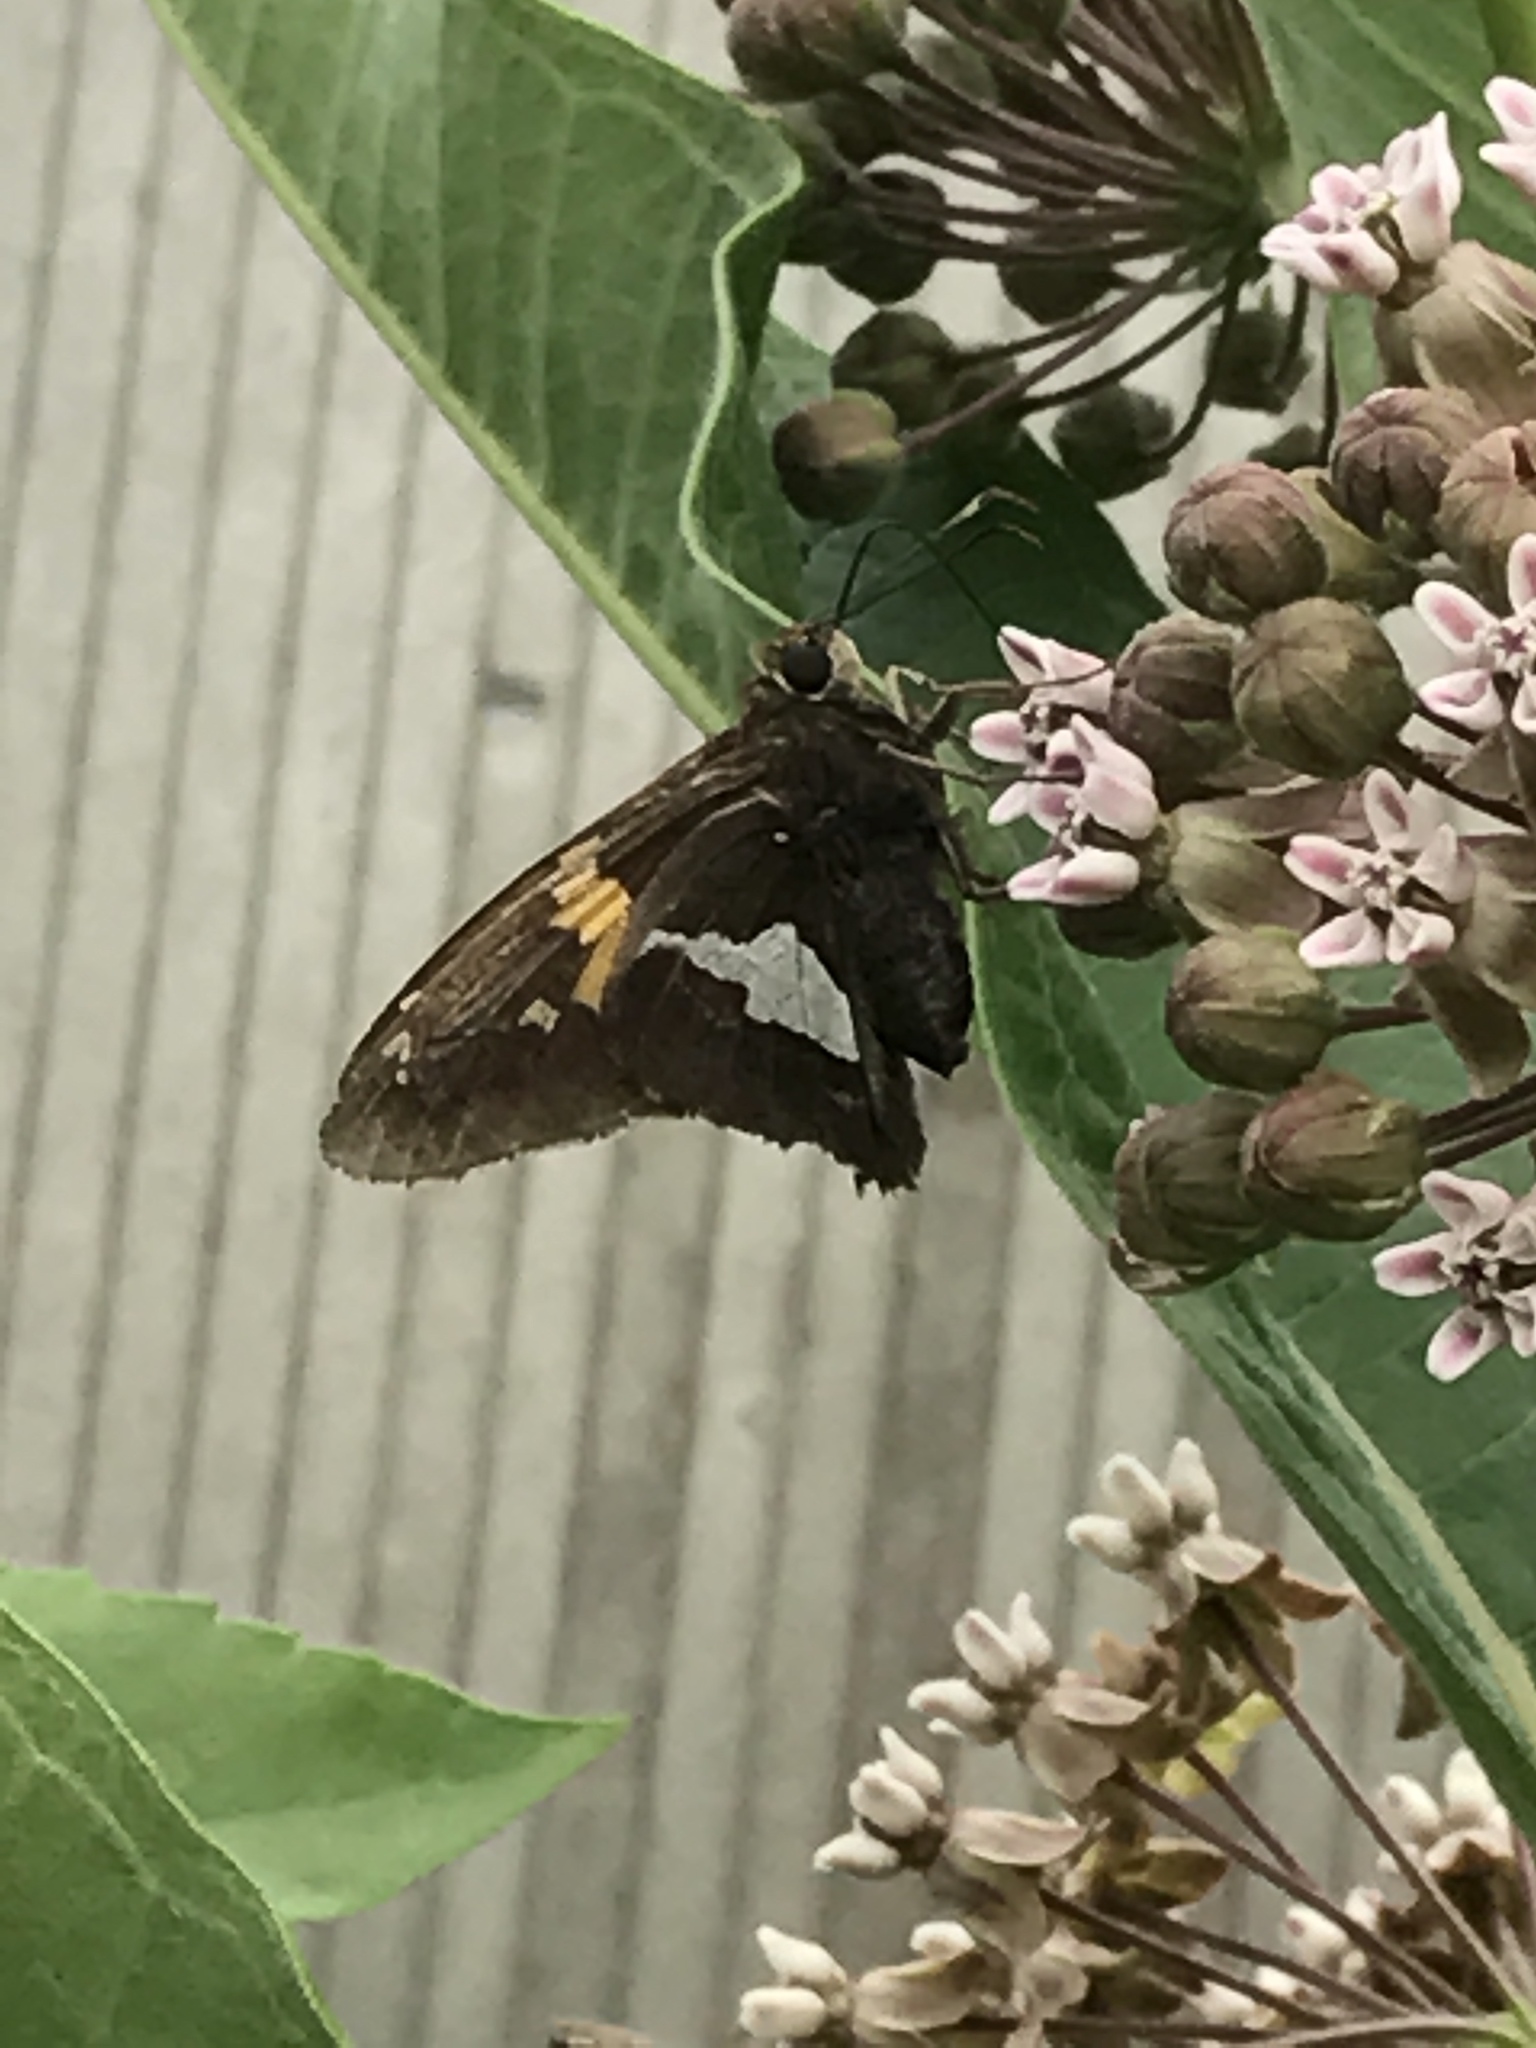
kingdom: Animalia
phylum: Arthropoda
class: Insecta
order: Lepidoptera
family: Hesperiidae
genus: Epargyreus
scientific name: Epargyreus clarus
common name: Silver-spotted skipper
